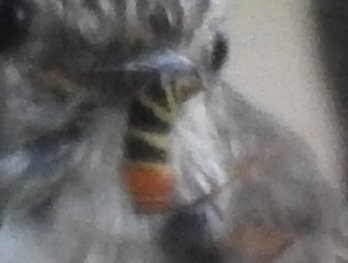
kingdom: Animalia
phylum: Arthropoda
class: Insecta
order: Hymenoptera
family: Vespidae
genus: Vespula
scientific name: Vespula rufa
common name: Red wasp
